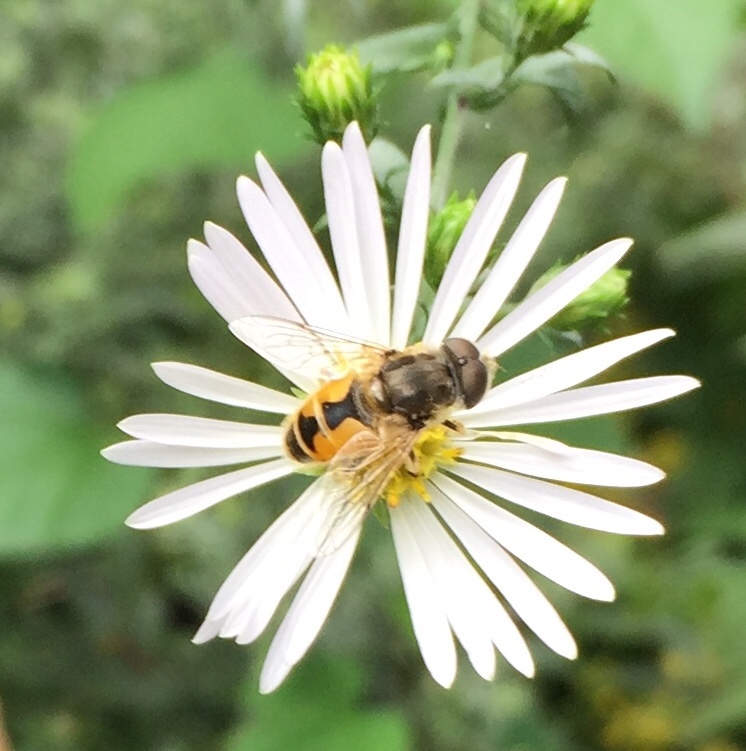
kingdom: Animalia
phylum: Arthropoda
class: Insecta
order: Diptera
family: Syrphidae
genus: Eristalis
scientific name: Eristalis arbustorum
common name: Hover fly
